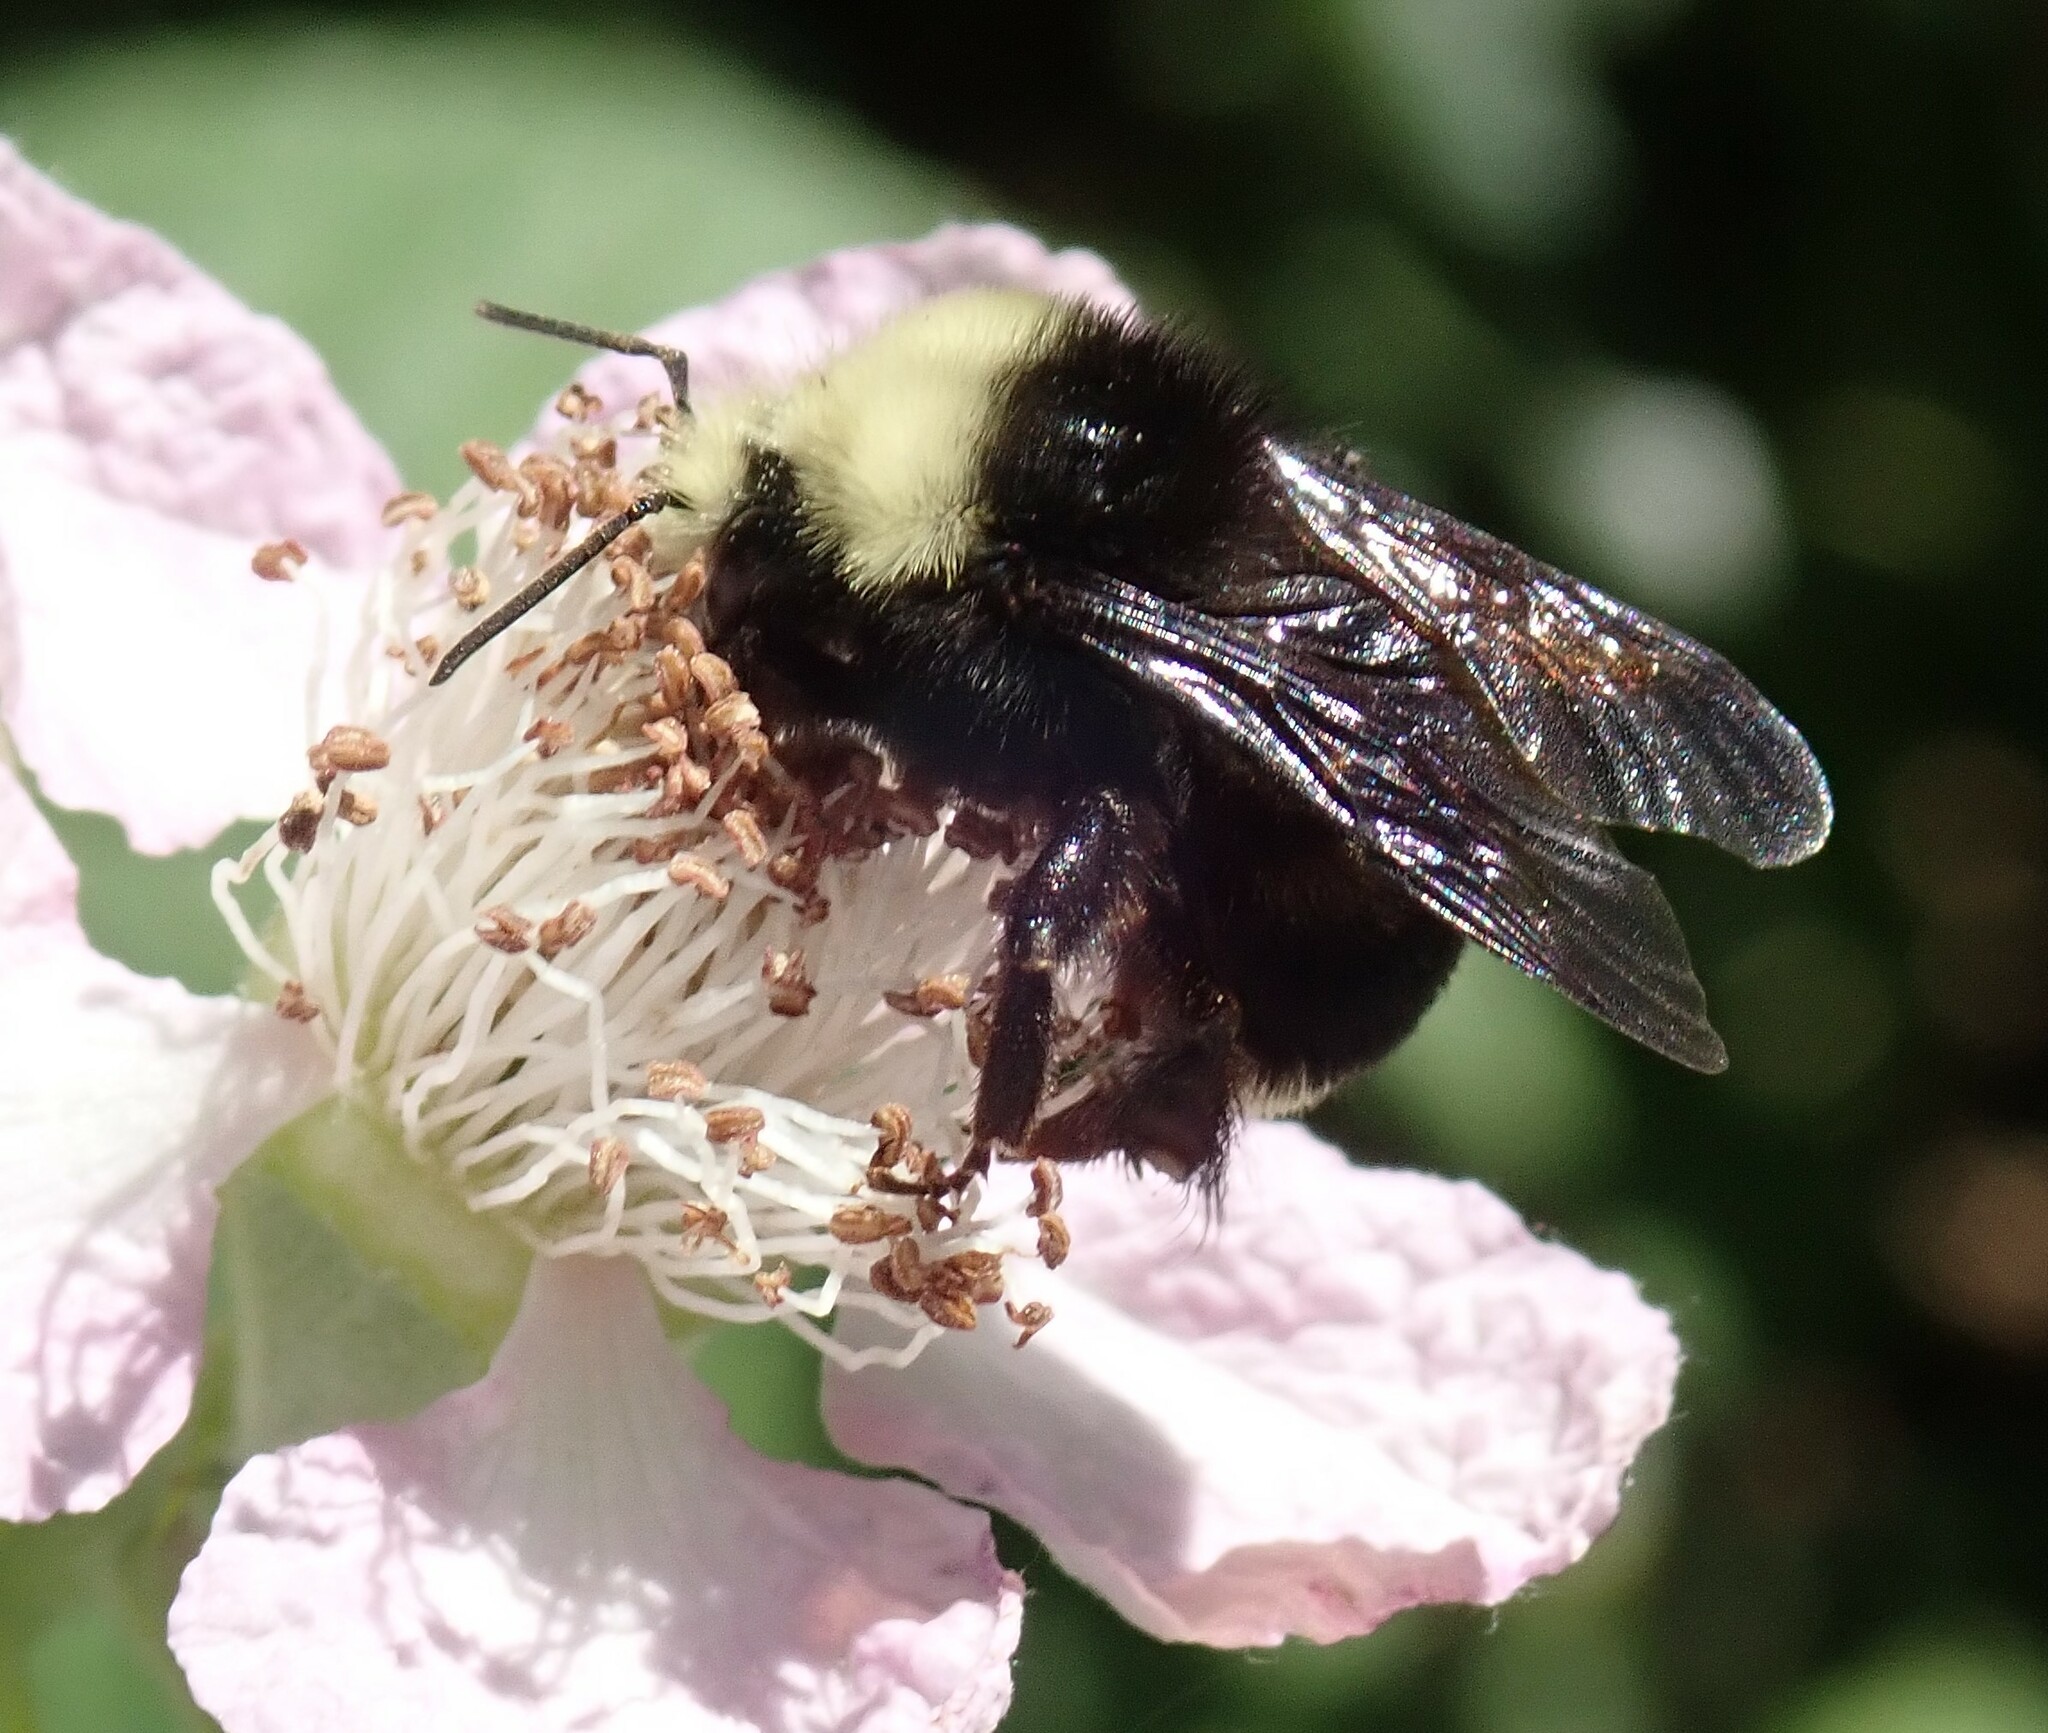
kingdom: Animalia
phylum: Arthropoda
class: Insecta
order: Hymenoptera
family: Apidae
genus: Bombus
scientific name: Bombus vosnesenskii
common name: Vosnesensky bumble bee
